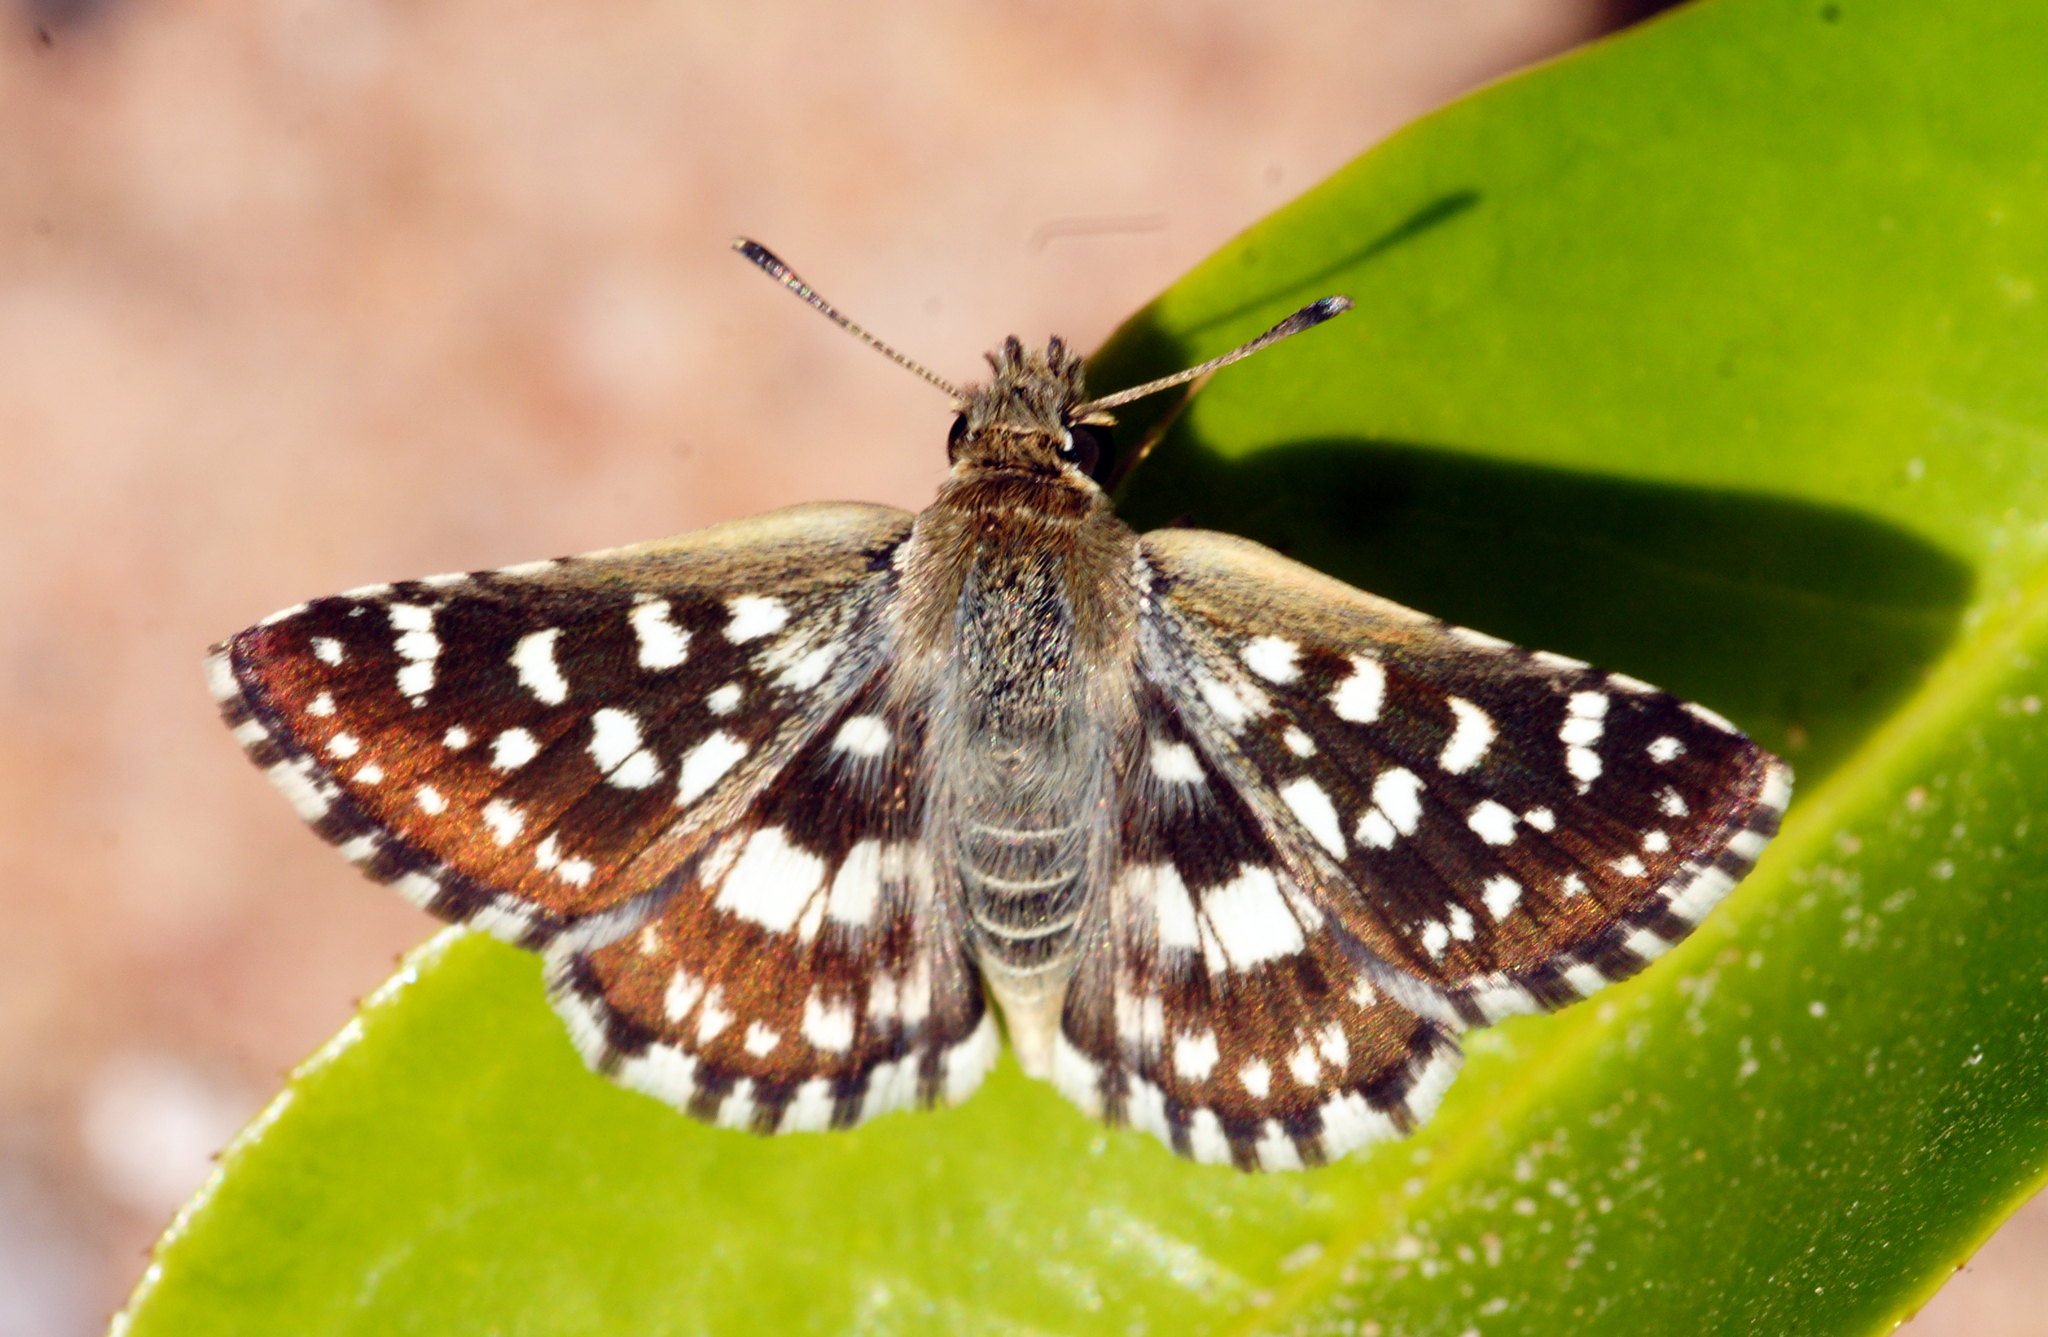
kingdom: Animalia
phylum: Arthropoda
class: Insecta
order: Lepidoptera
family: Hesperiidae
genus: Spialia
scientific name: Spialia galba
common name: Indian skipper
